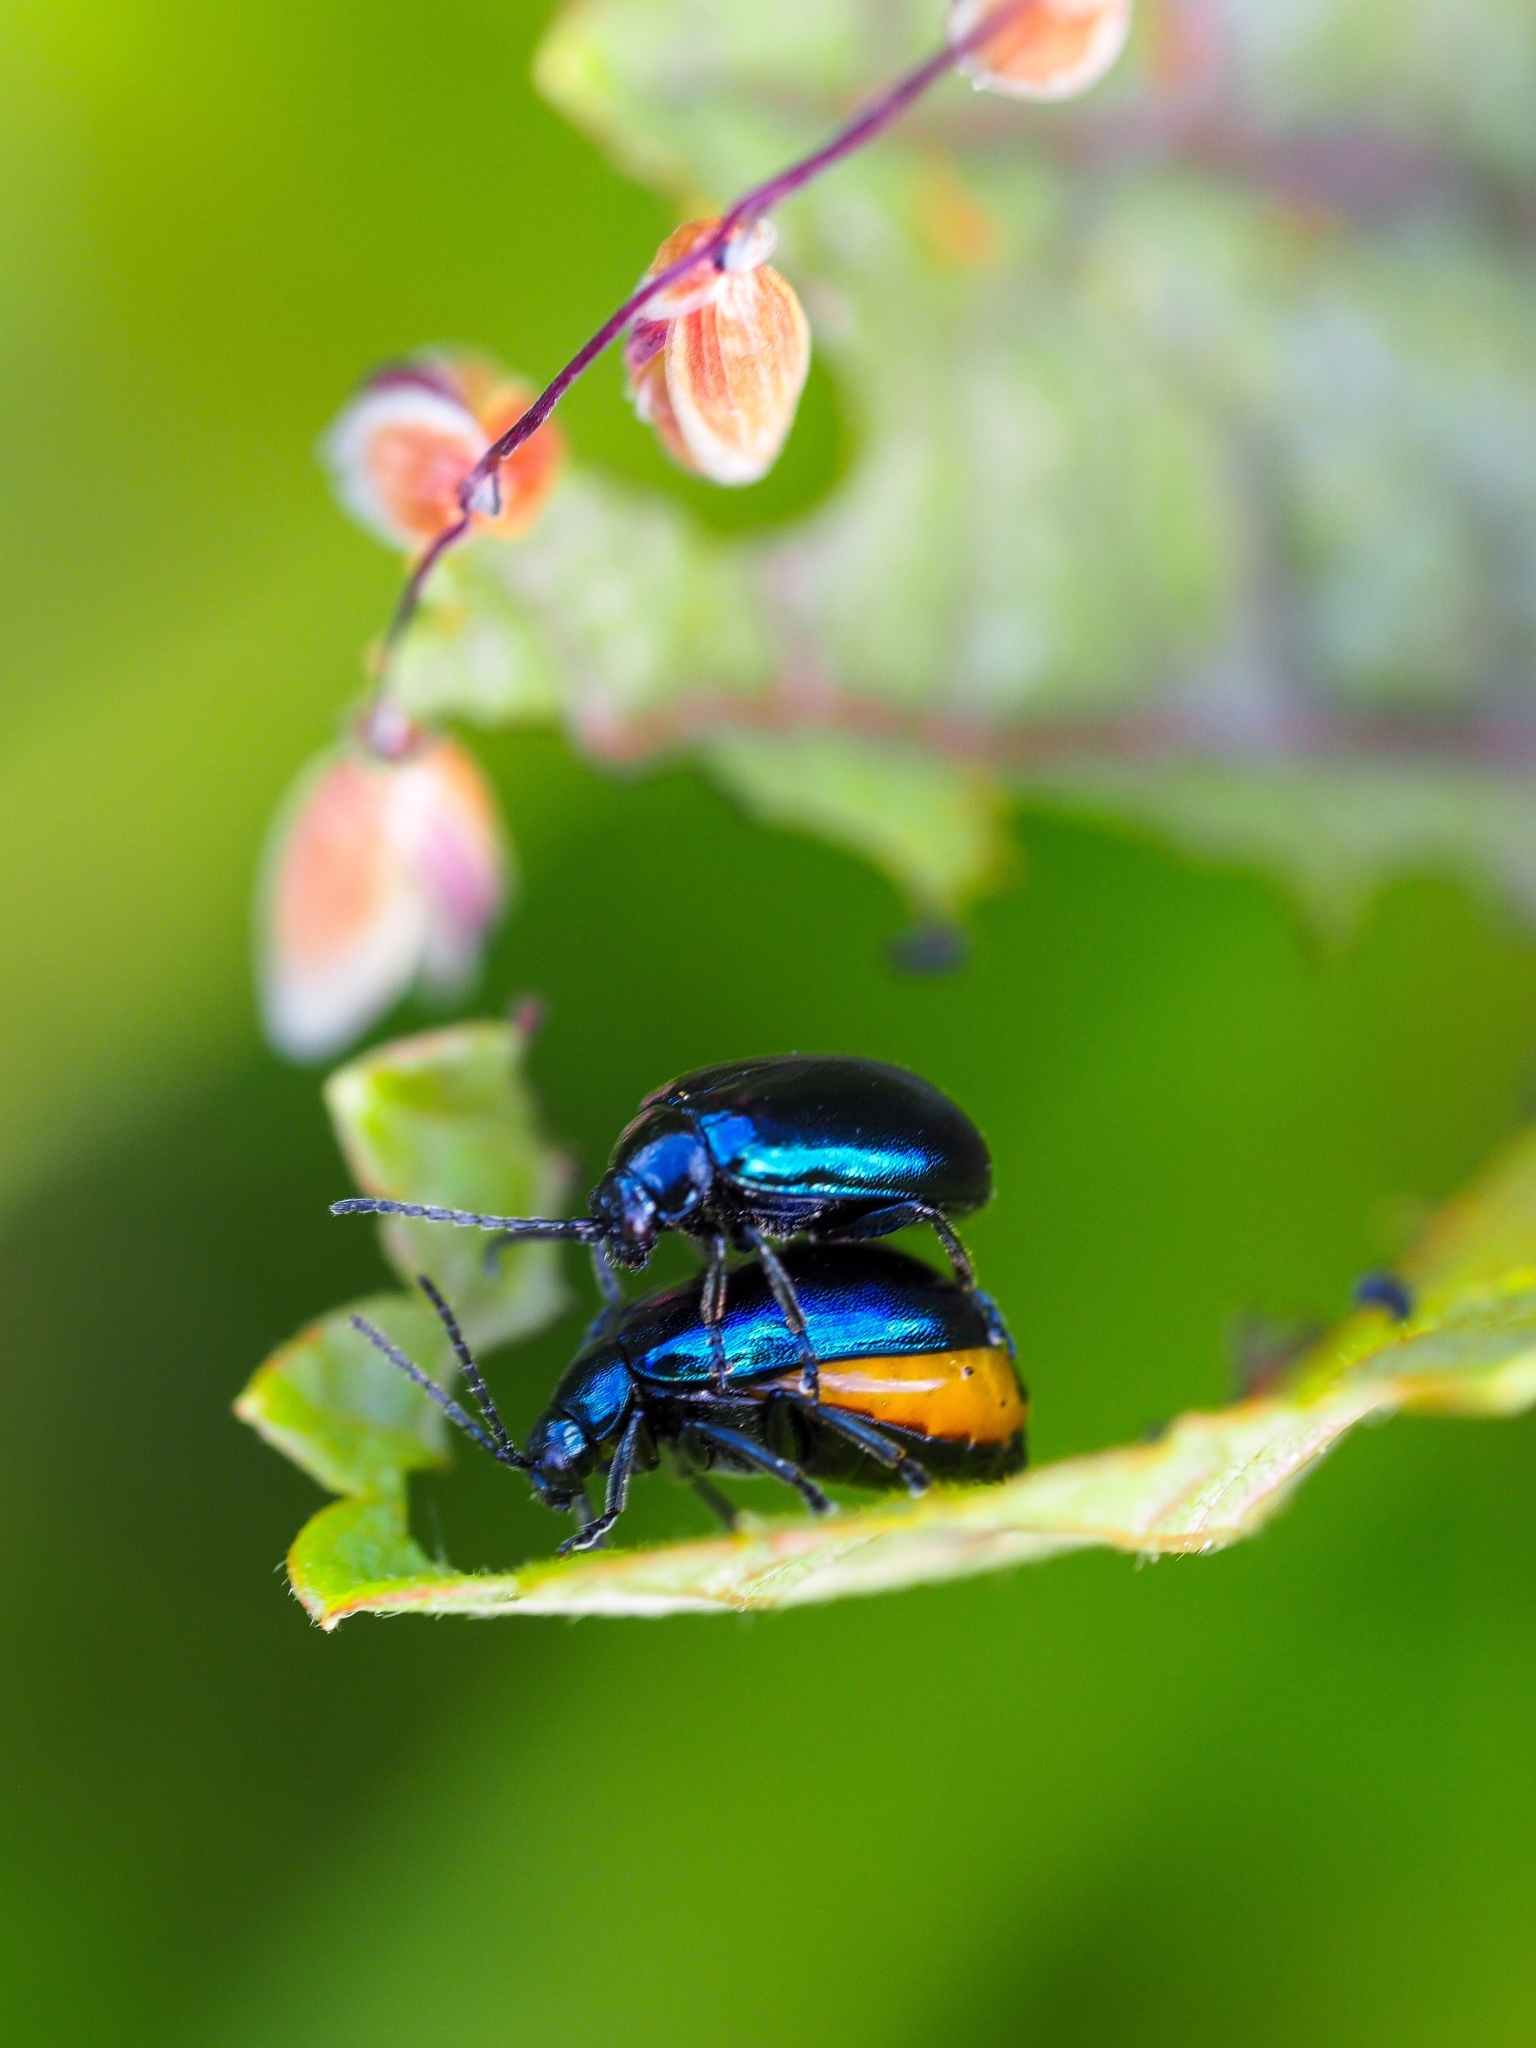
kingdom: Animalia
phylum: Arthropoda
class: Insecta
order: Coleoptera
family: Chrysomelidae
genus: Agelastica
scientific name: Agelastica alni
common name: Alder leaf beetle
